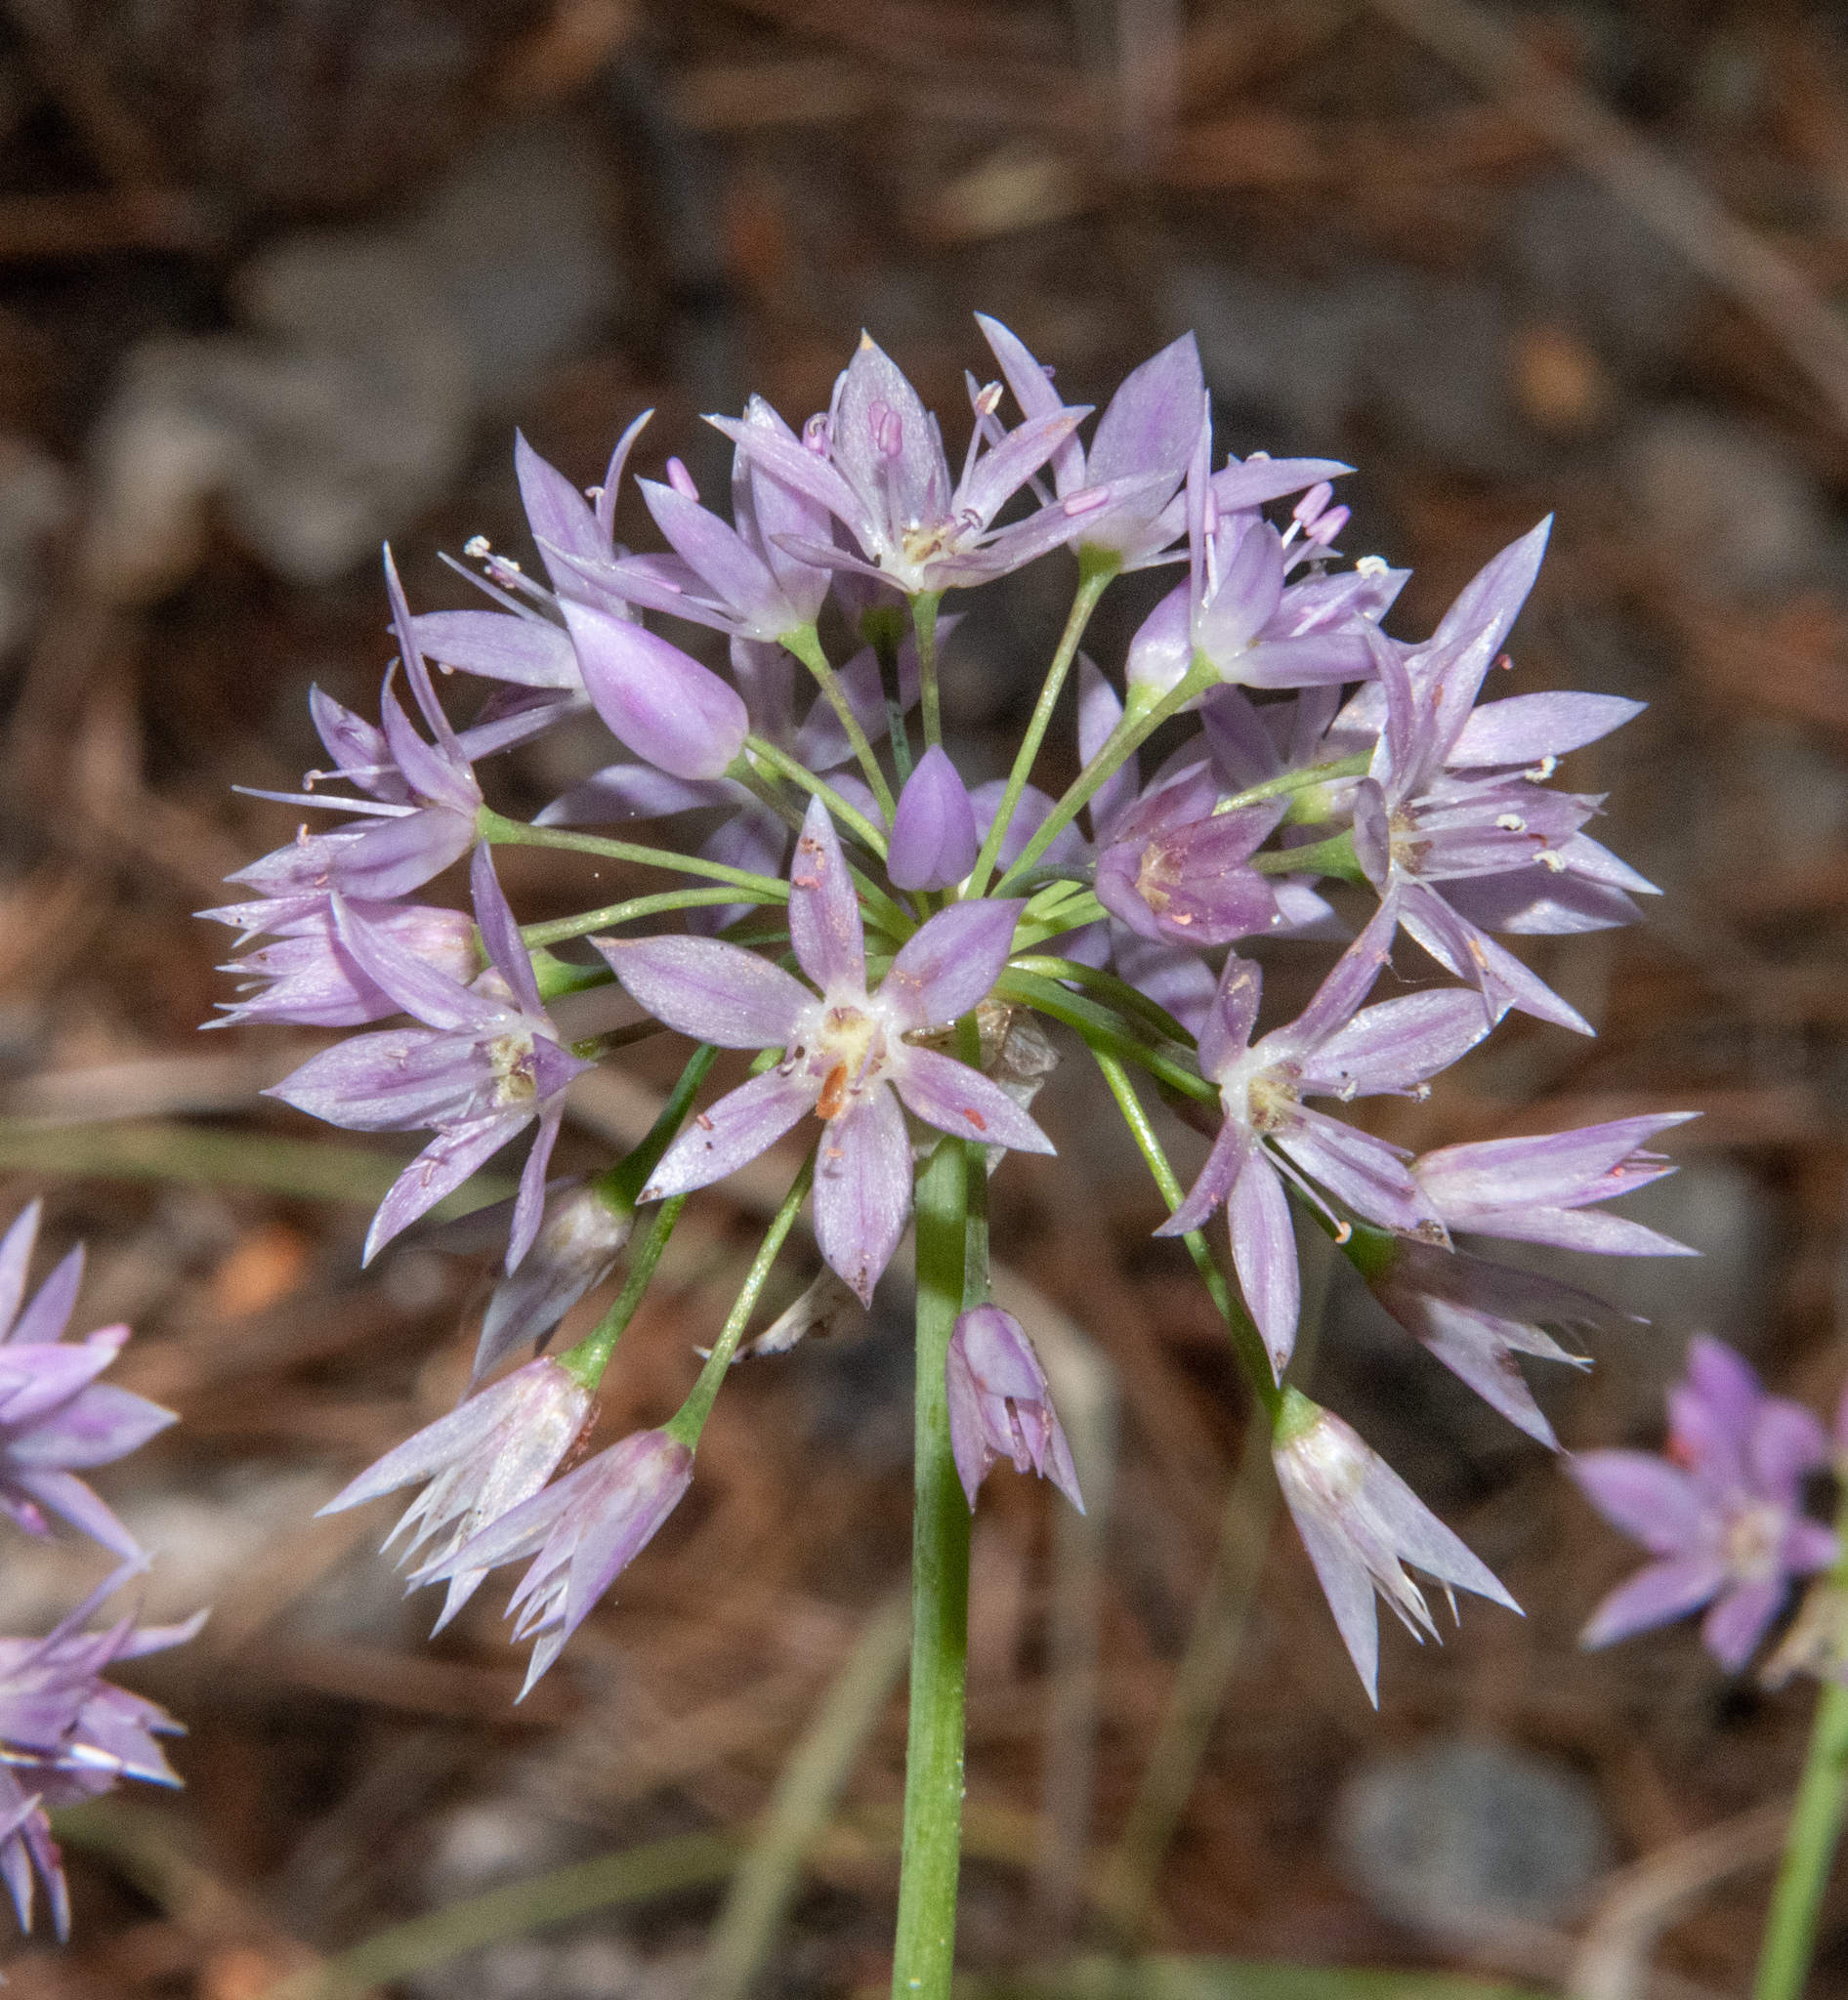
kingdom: Plantae
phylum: Tracheophyta
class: Liliopsida
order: Asparagales
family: Amaryllidaceae
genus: Allium
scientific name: Allium bisceptrum
